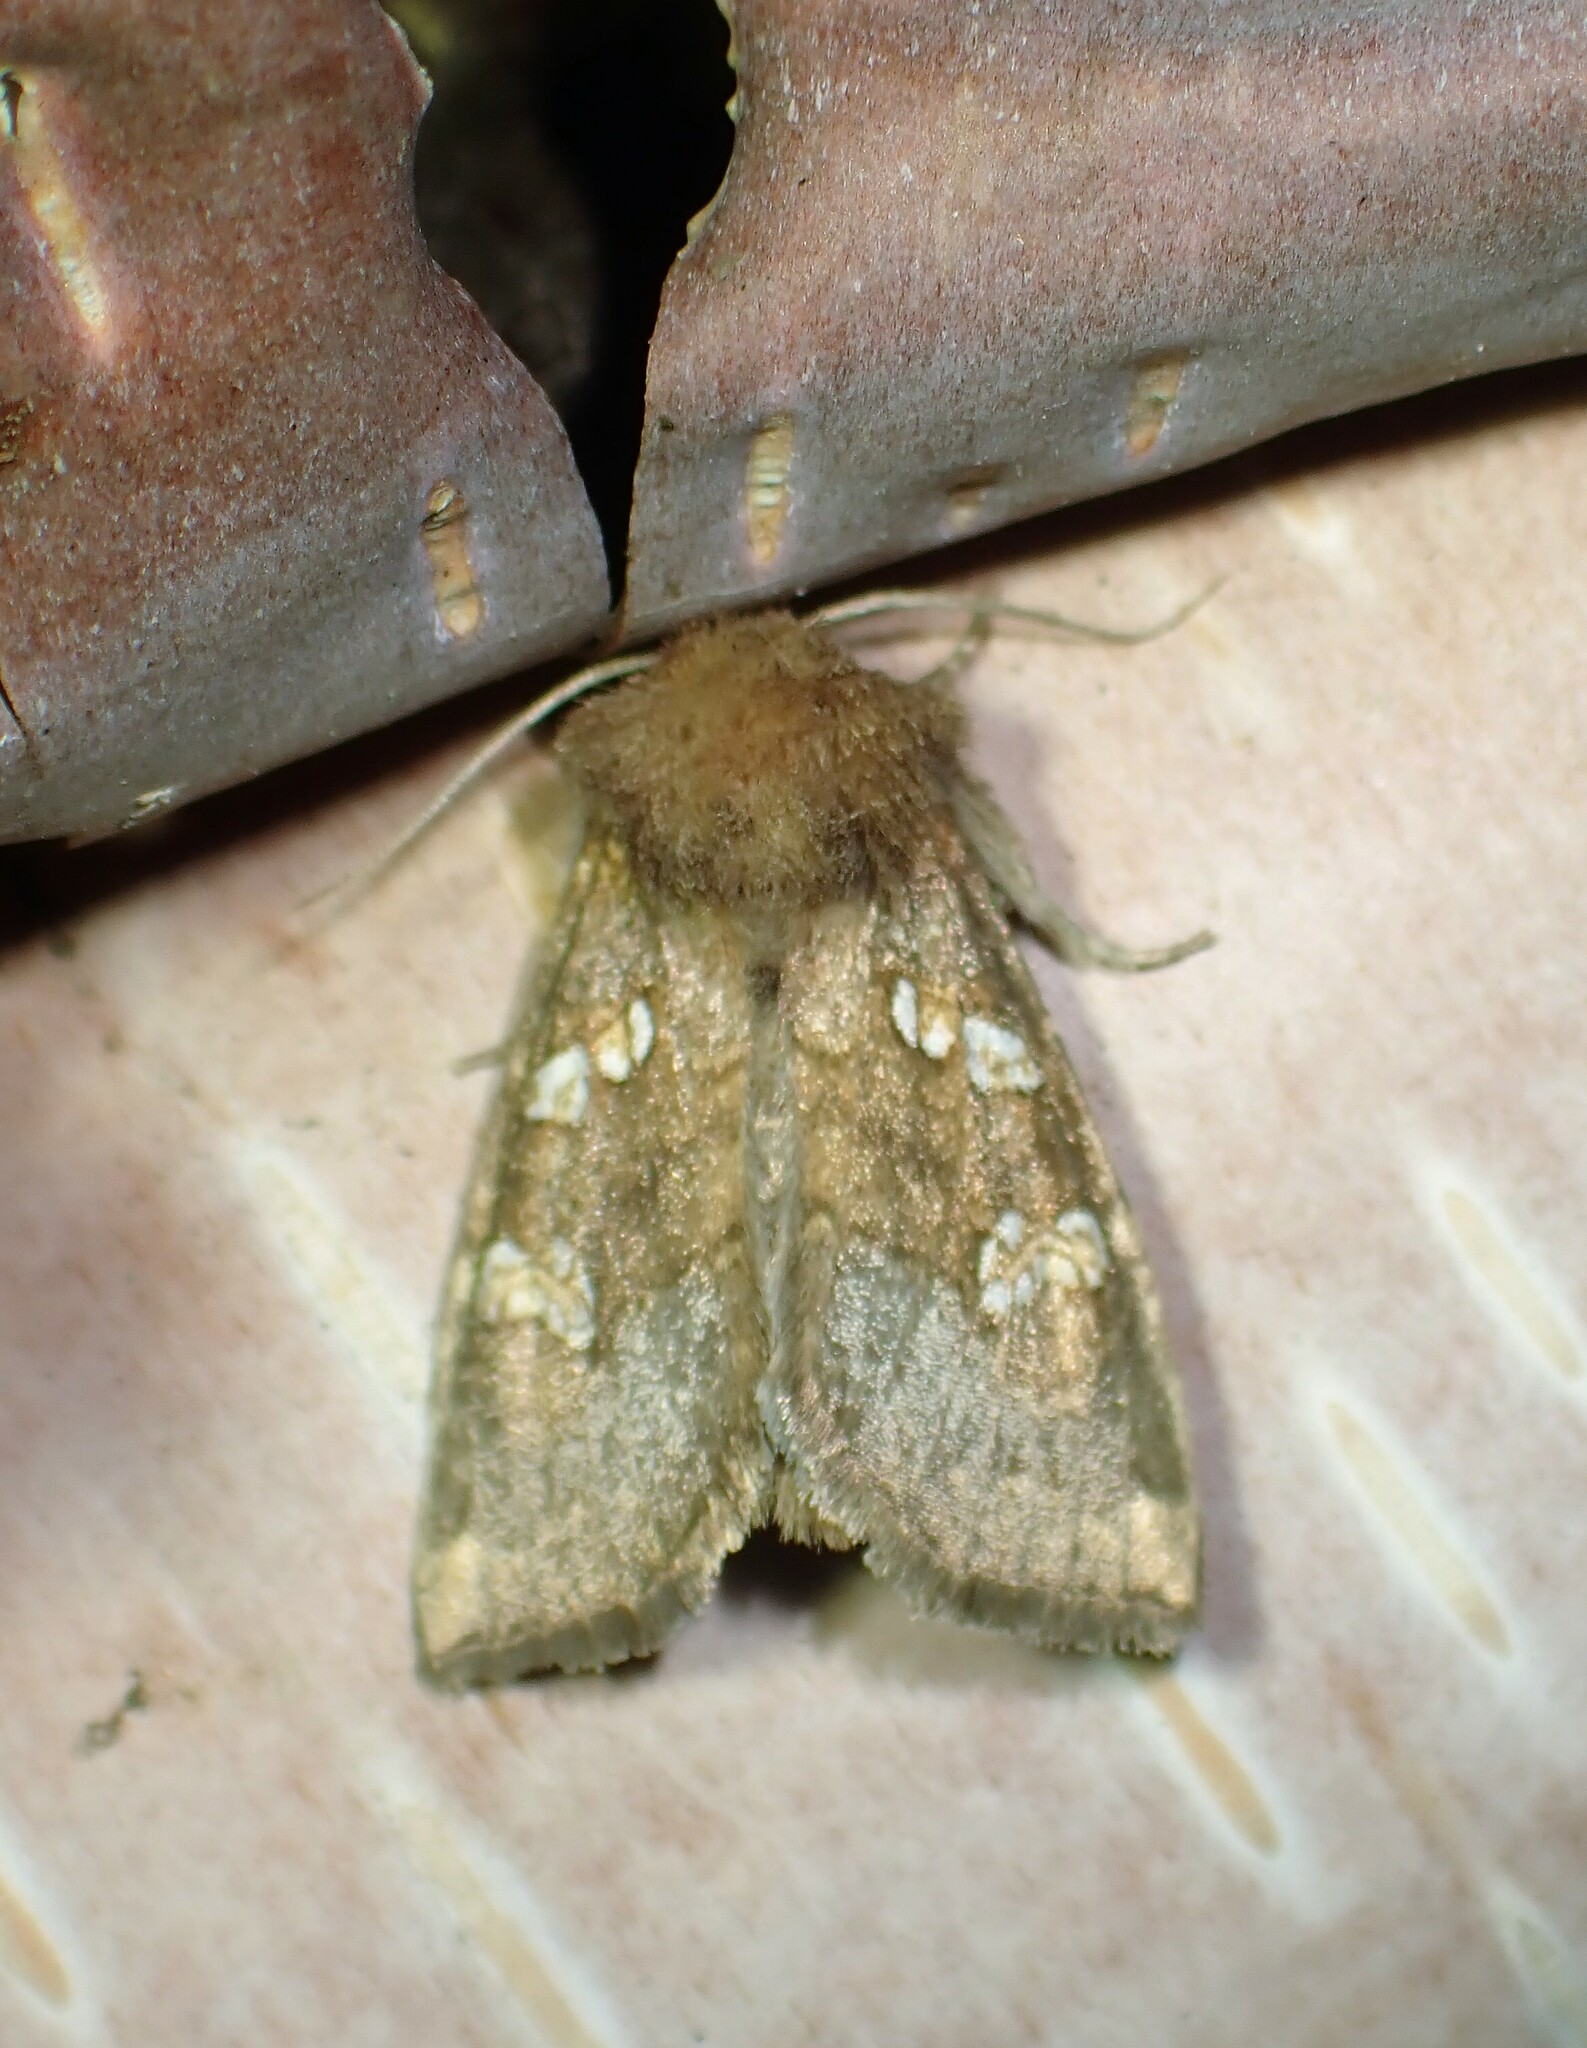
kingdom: Animalia
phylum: Arthropoda
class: Insecta
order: Lepidoptera
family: Noctuidae
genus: Papaipema
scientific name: Papaipema unimoda
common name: Meadow rue borer moth
